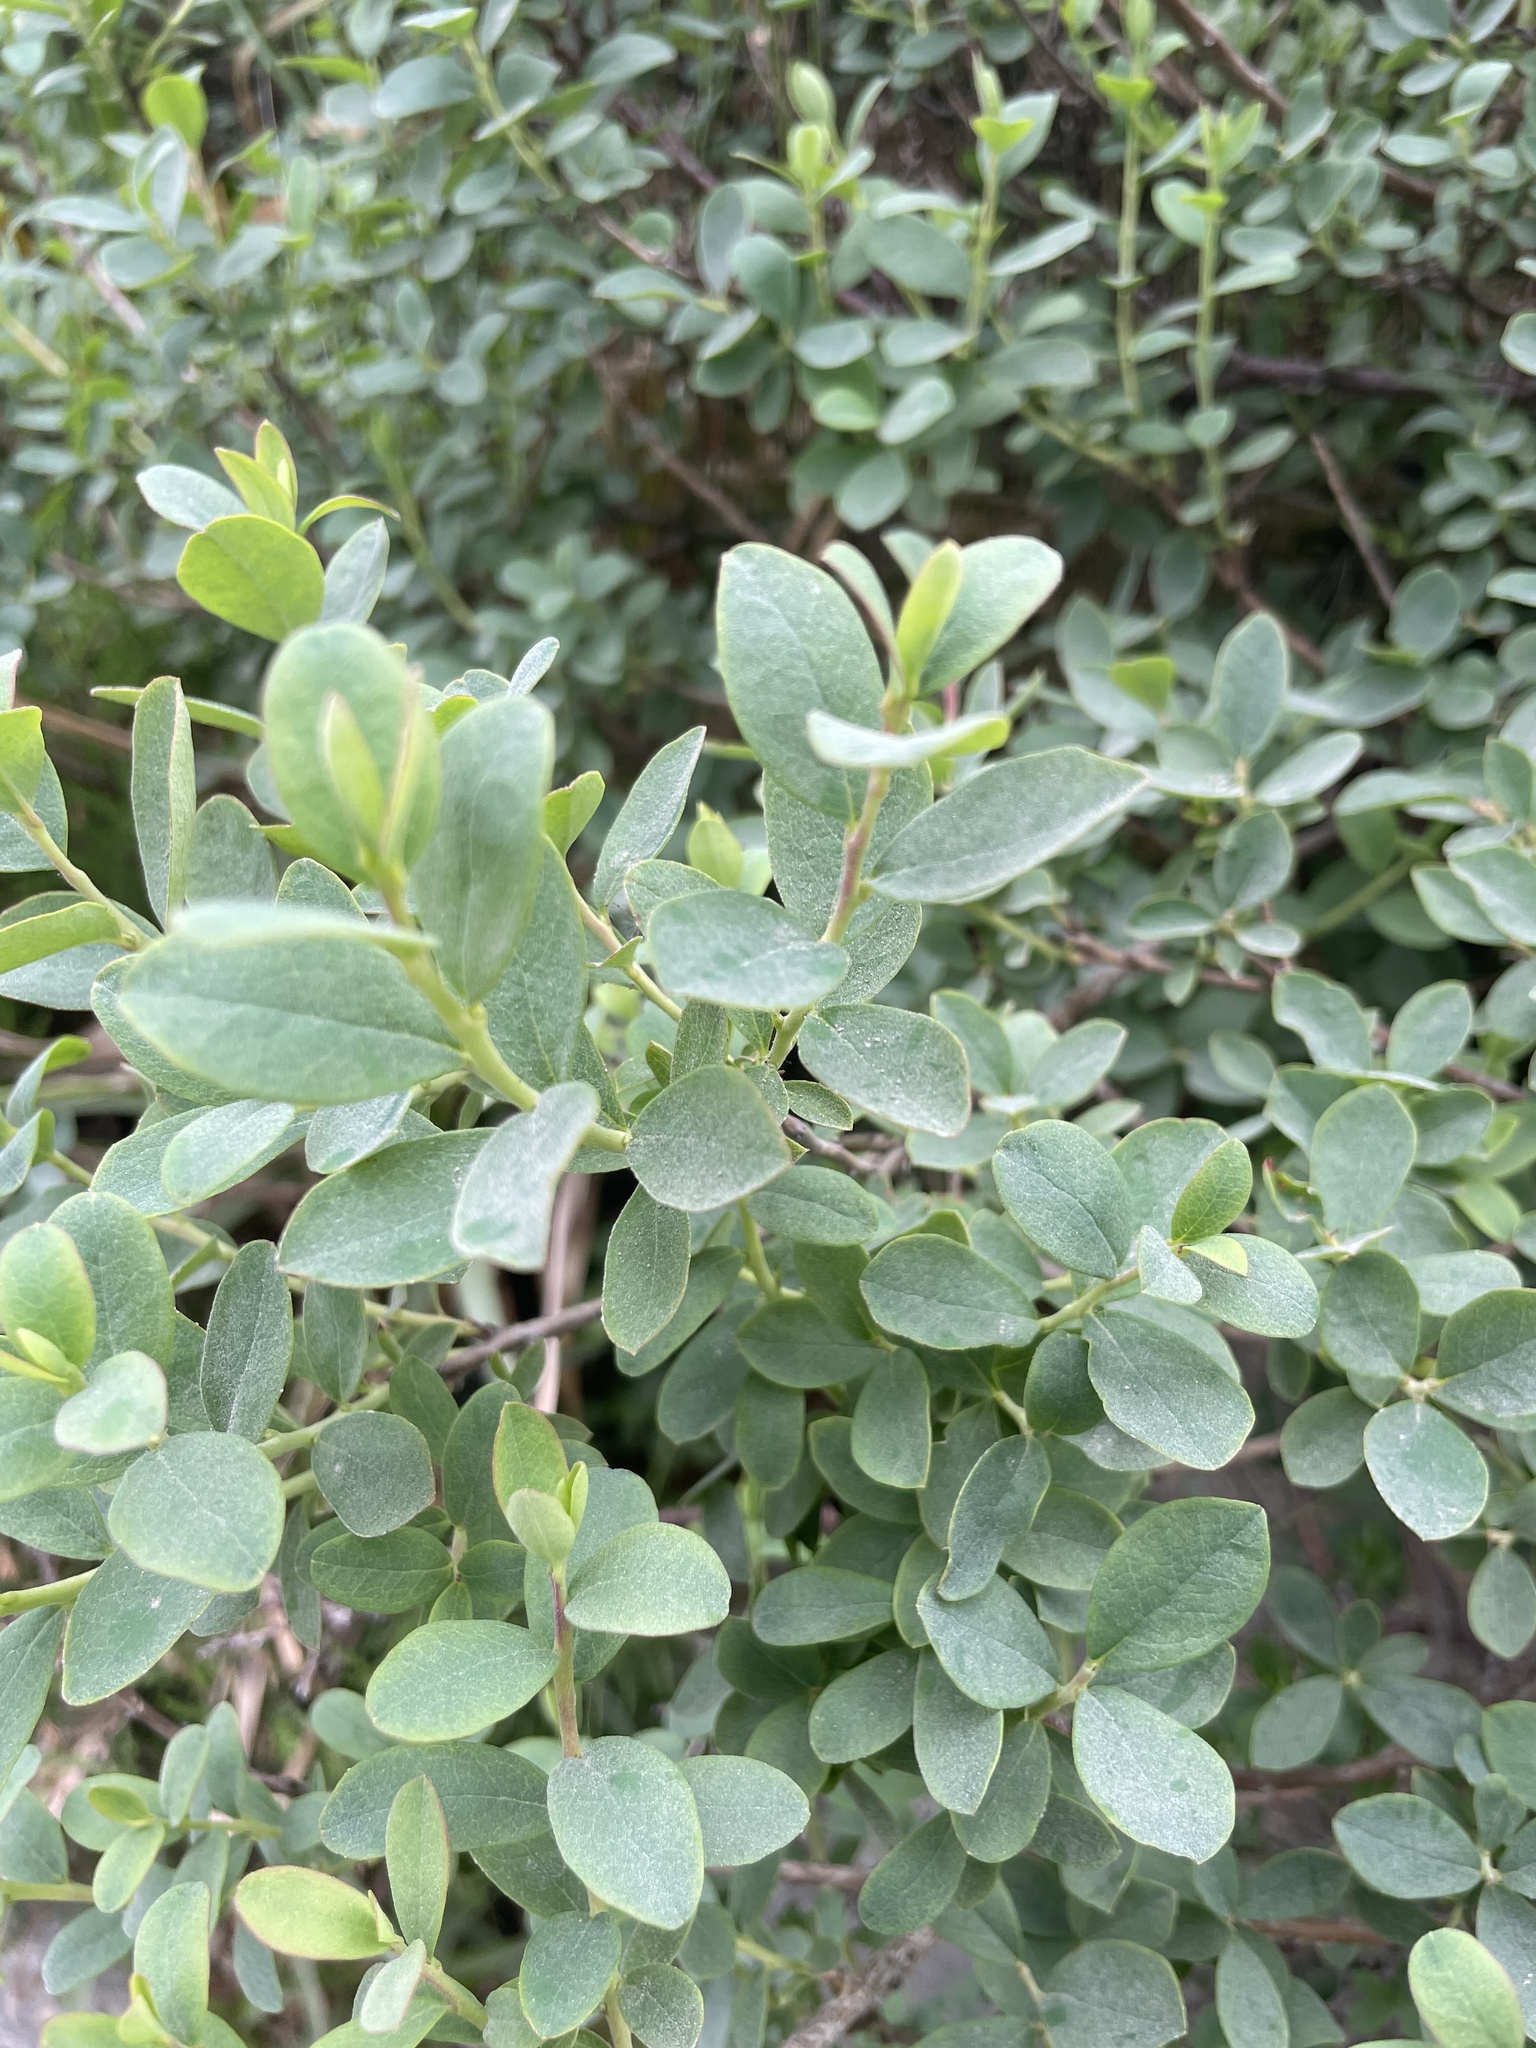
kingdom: Plantae
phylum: Tracheophyta
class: Magnoliopsida
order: Ericales
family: Ericaceae
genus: Vaccinium
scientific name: Vaccinium uliginosum
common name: Bog bilberry
